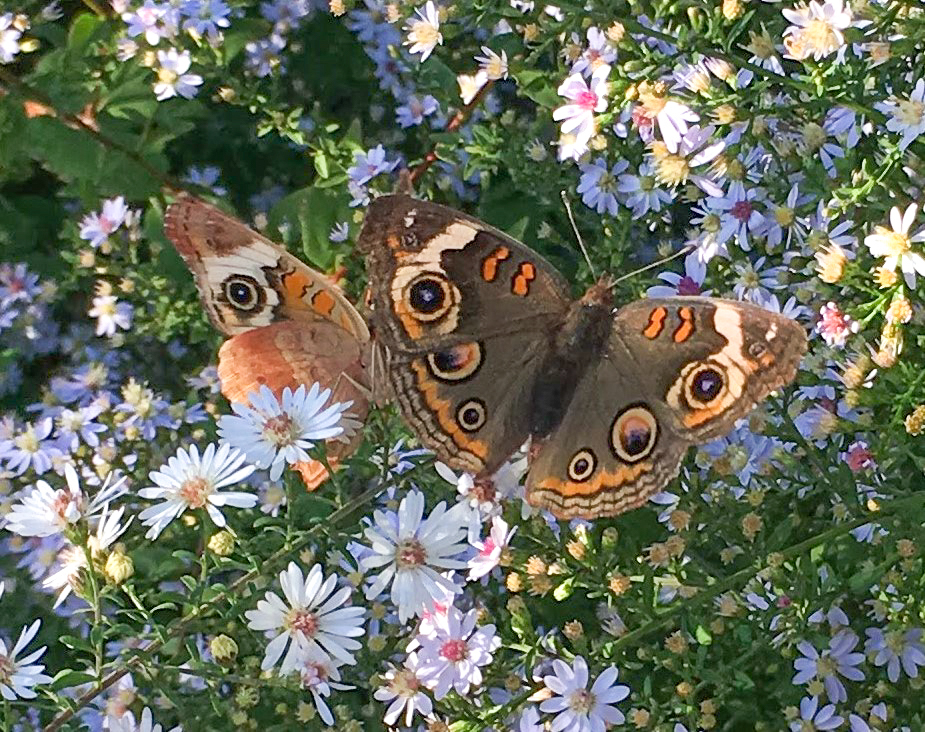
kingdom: Animalia
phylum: Arthropoda
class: Insecta
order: Lepidoptera
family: Nymphalidae
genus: Junonia
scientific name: Junonia coenia
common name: Common buckeye
